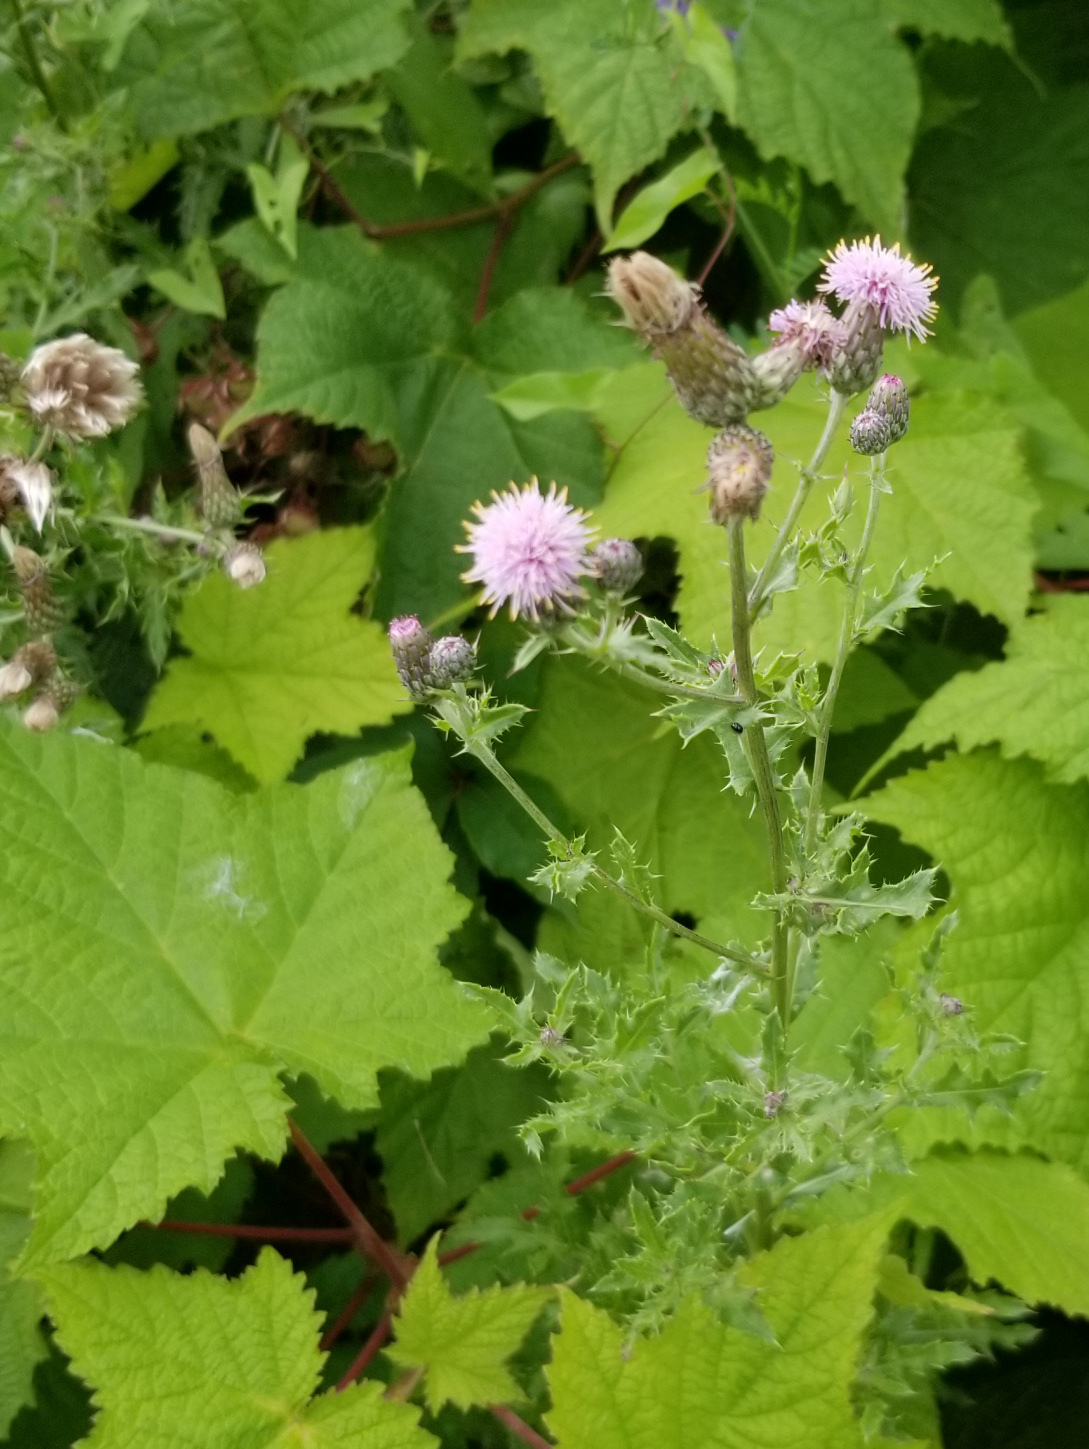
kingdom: Plantae
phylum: Tracheophyta
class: Magnoliopsida
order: Asterales
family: Asteraceae
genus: Cirsium
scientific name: Cirsium arvense
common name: Creeping thistle
